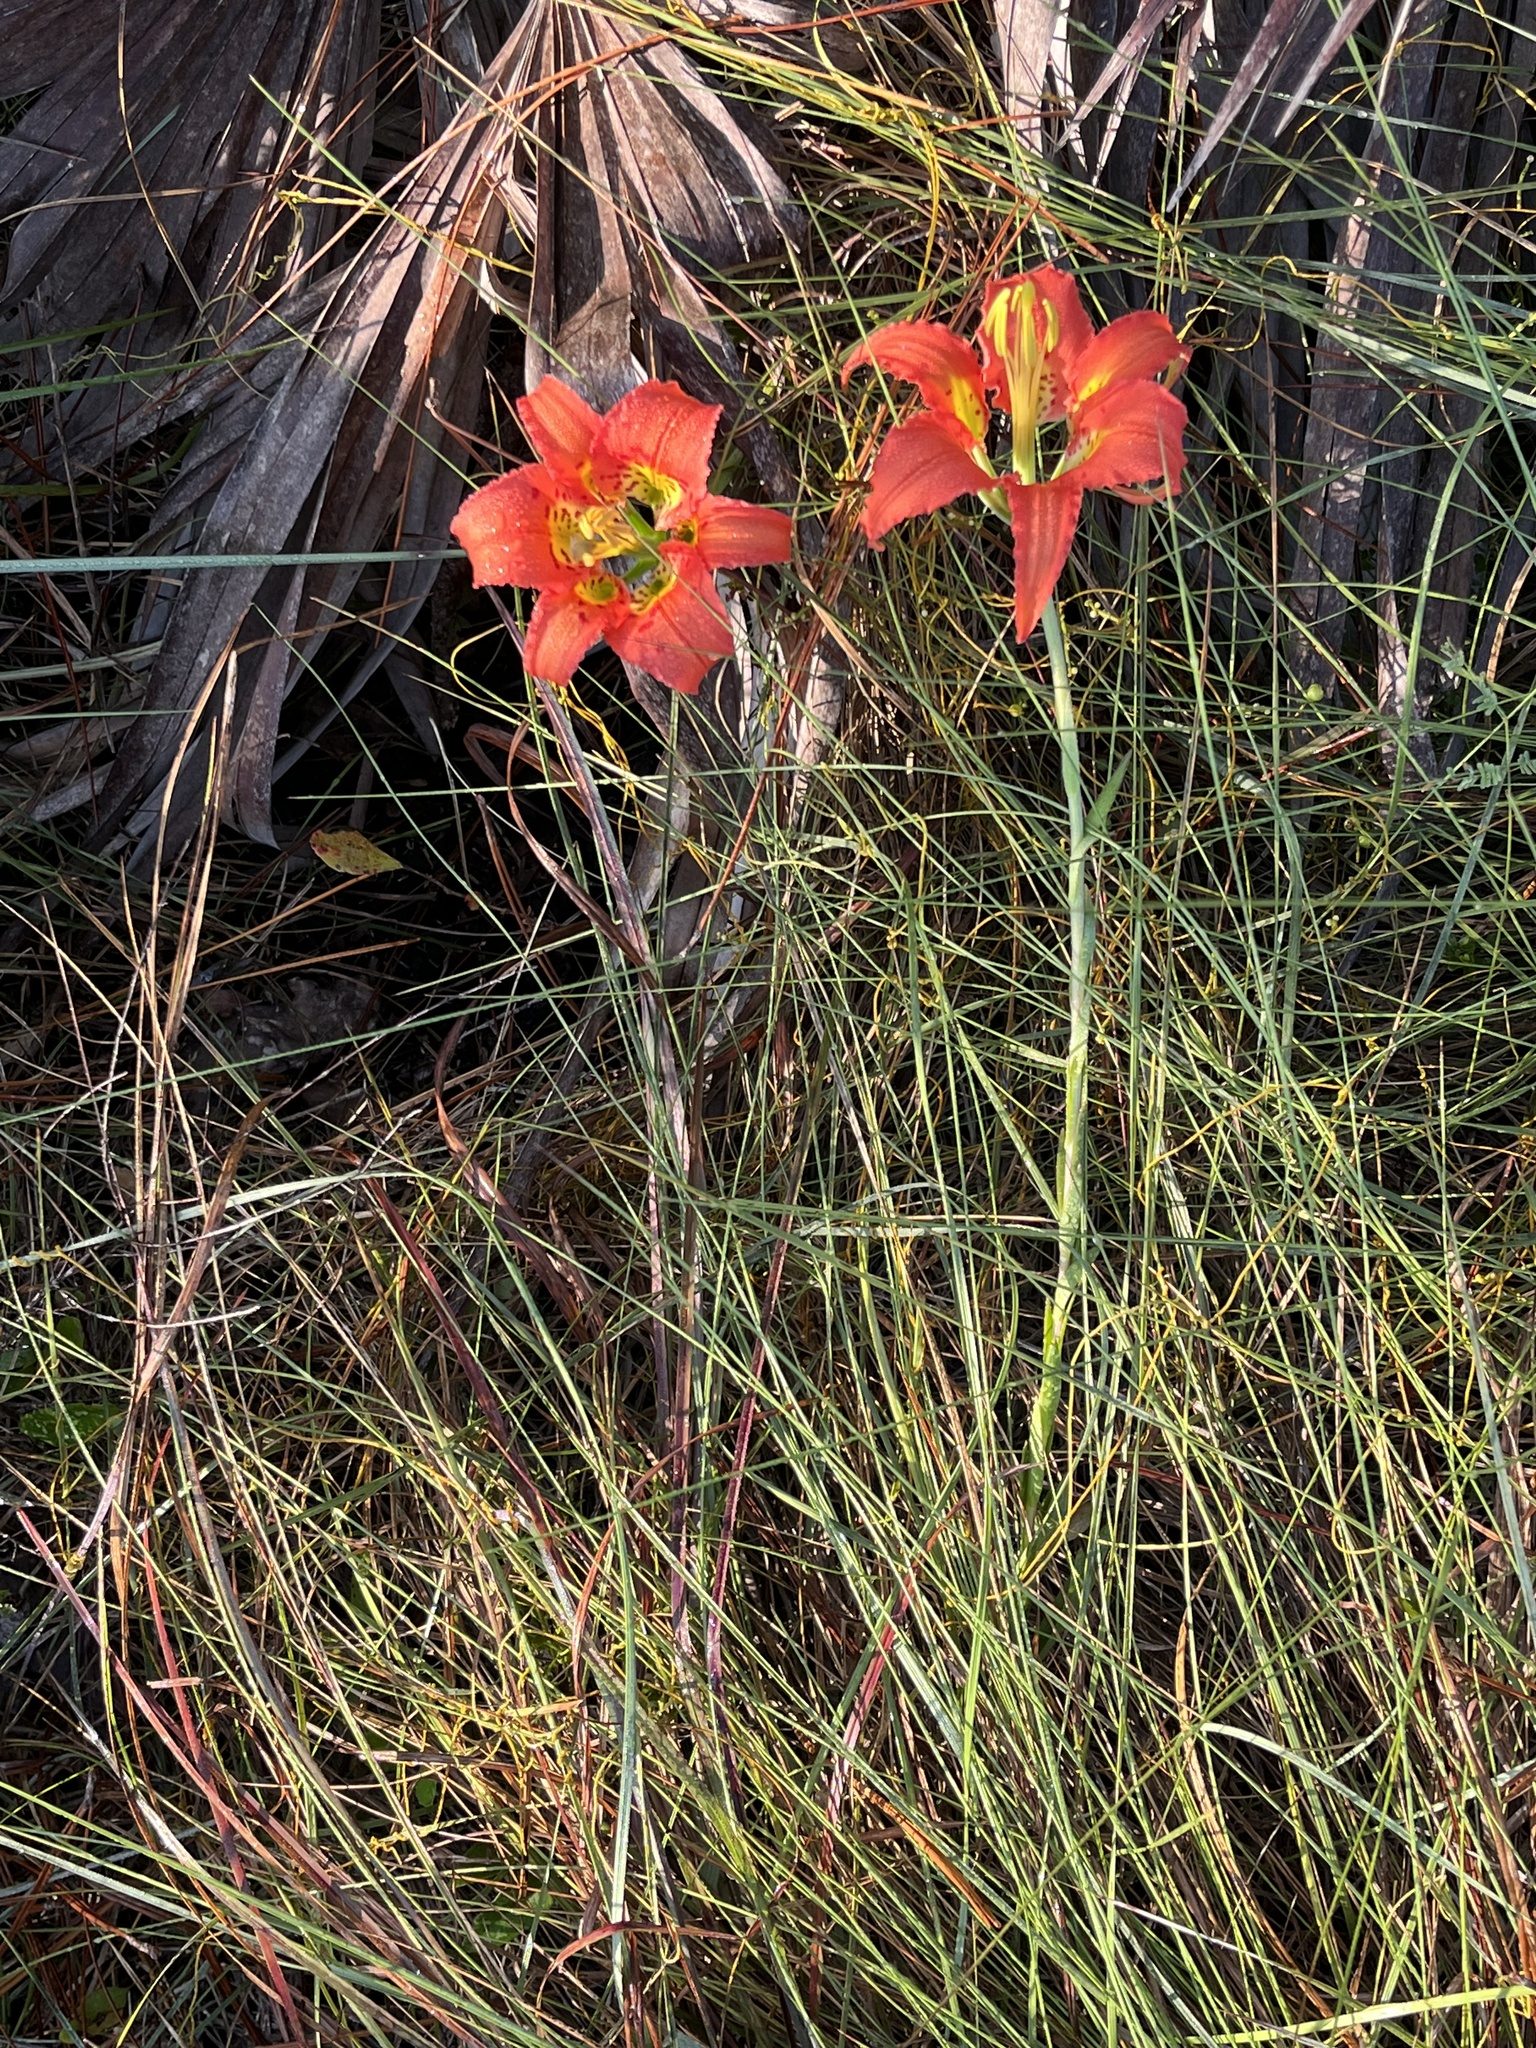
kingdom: Plantae
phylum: Tracheophyta
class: Liliopsida
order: Liliales
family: Liliaceae
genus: Lilium
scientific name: Lilium catesbaei
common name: Catesby's lily
